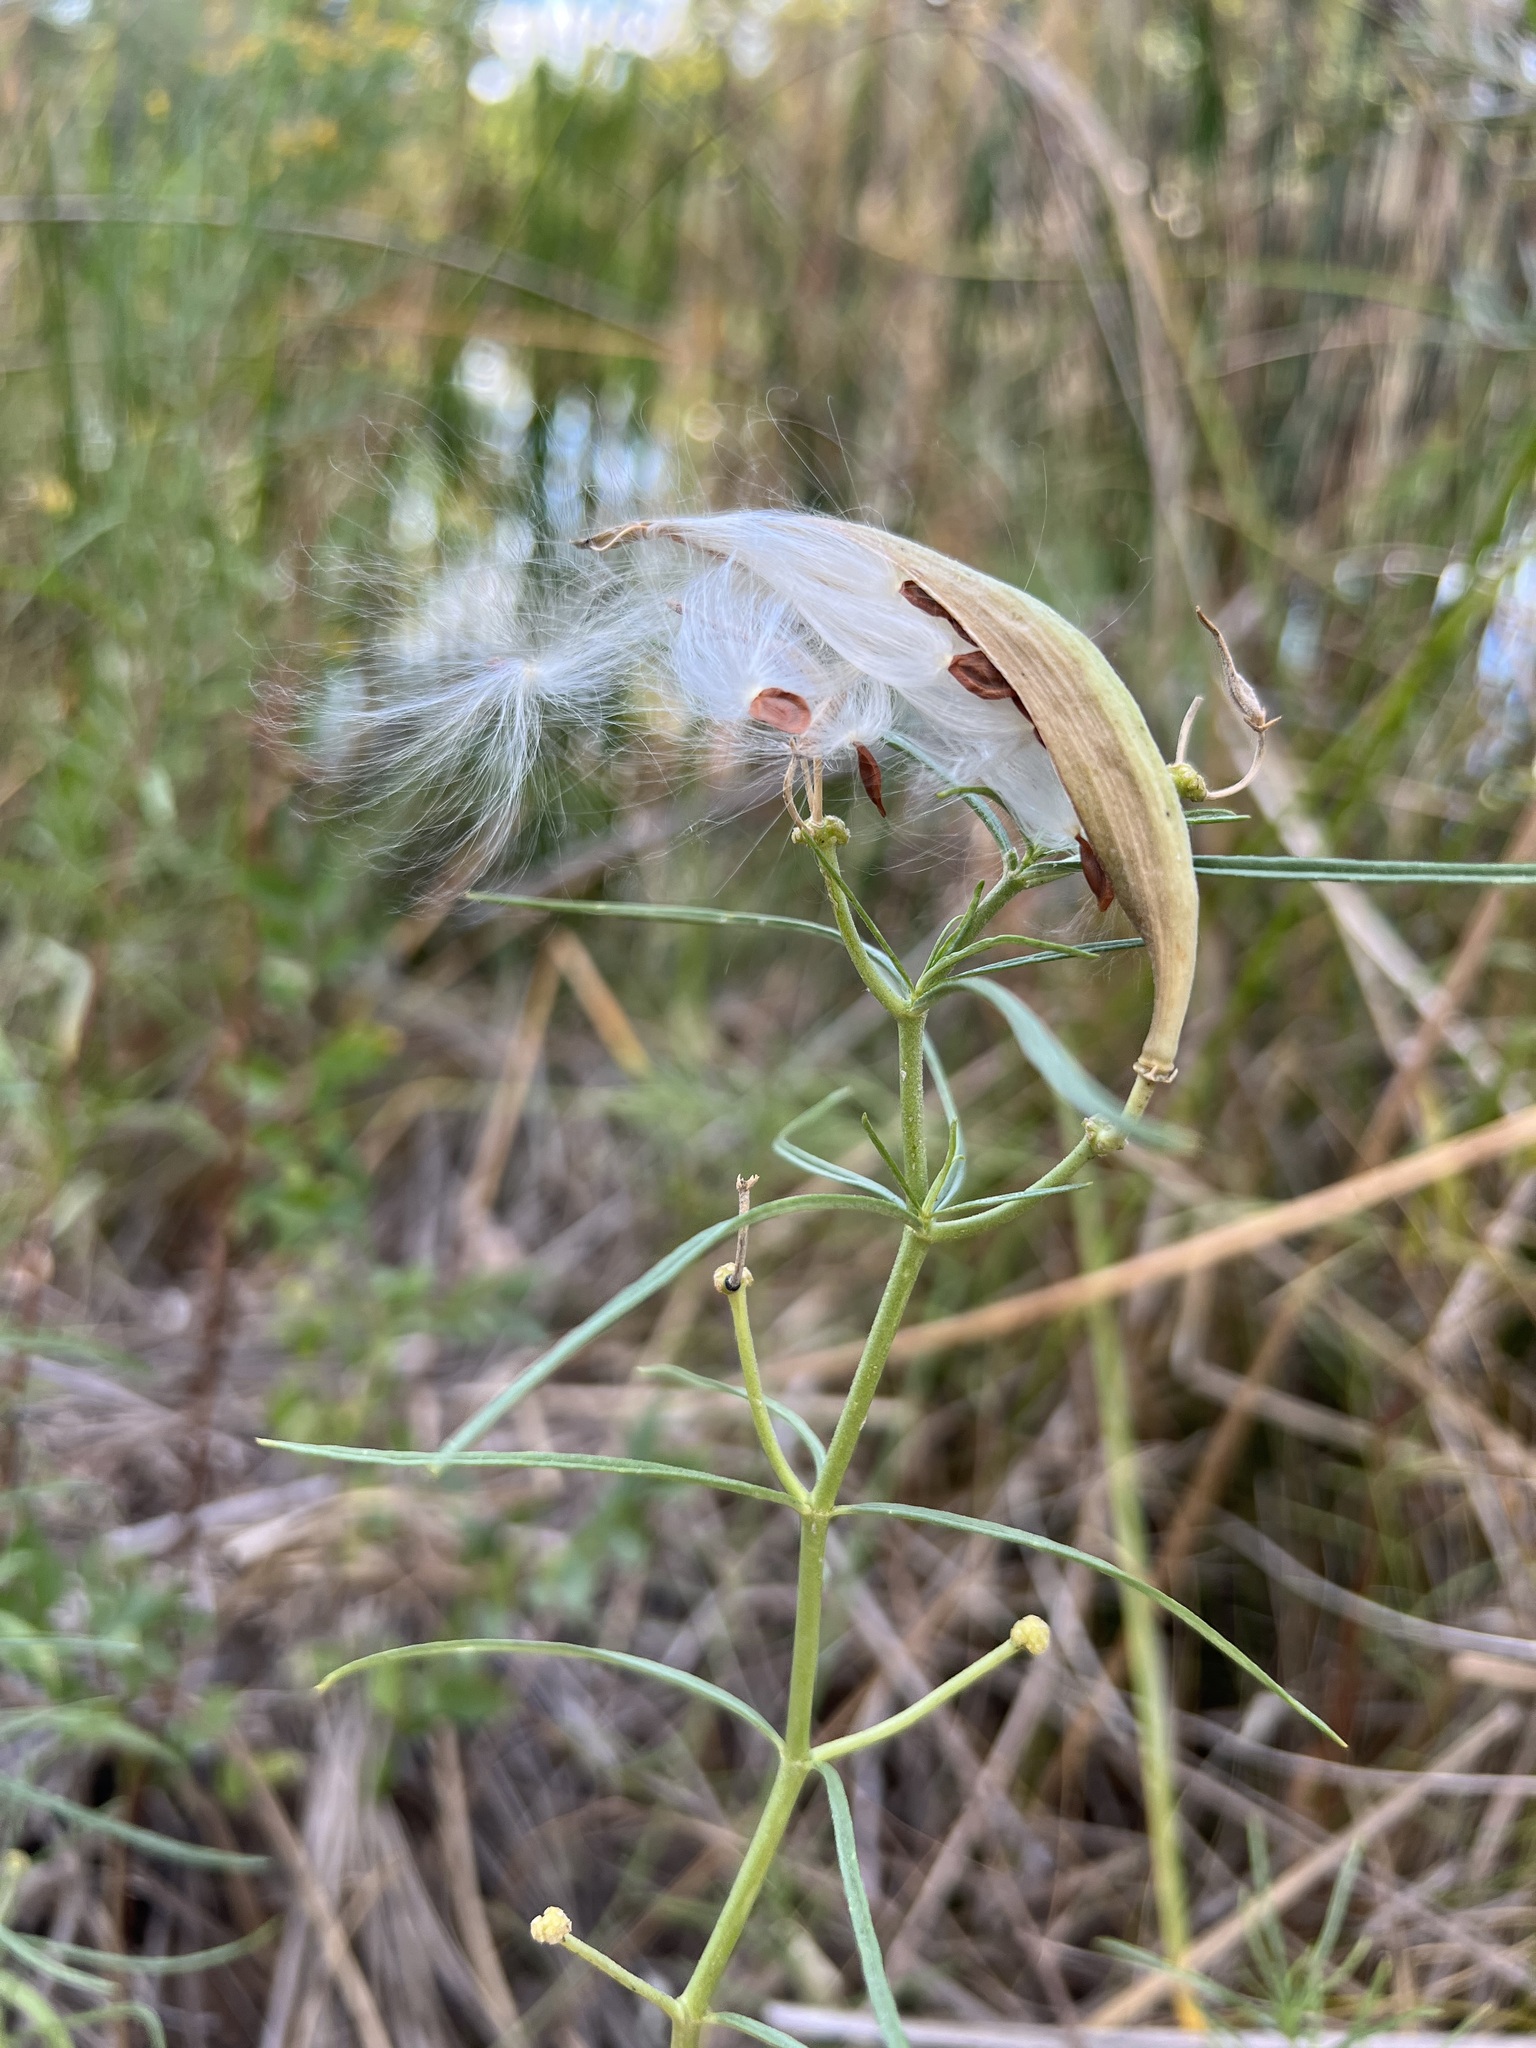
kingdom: Plantae
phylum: Tracheophyta
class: Magnoliopsida
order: Gentianales
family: Apocynaceae
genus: Asclepias
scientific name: Asclepias subverticillata
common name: Horsetail milkweed
